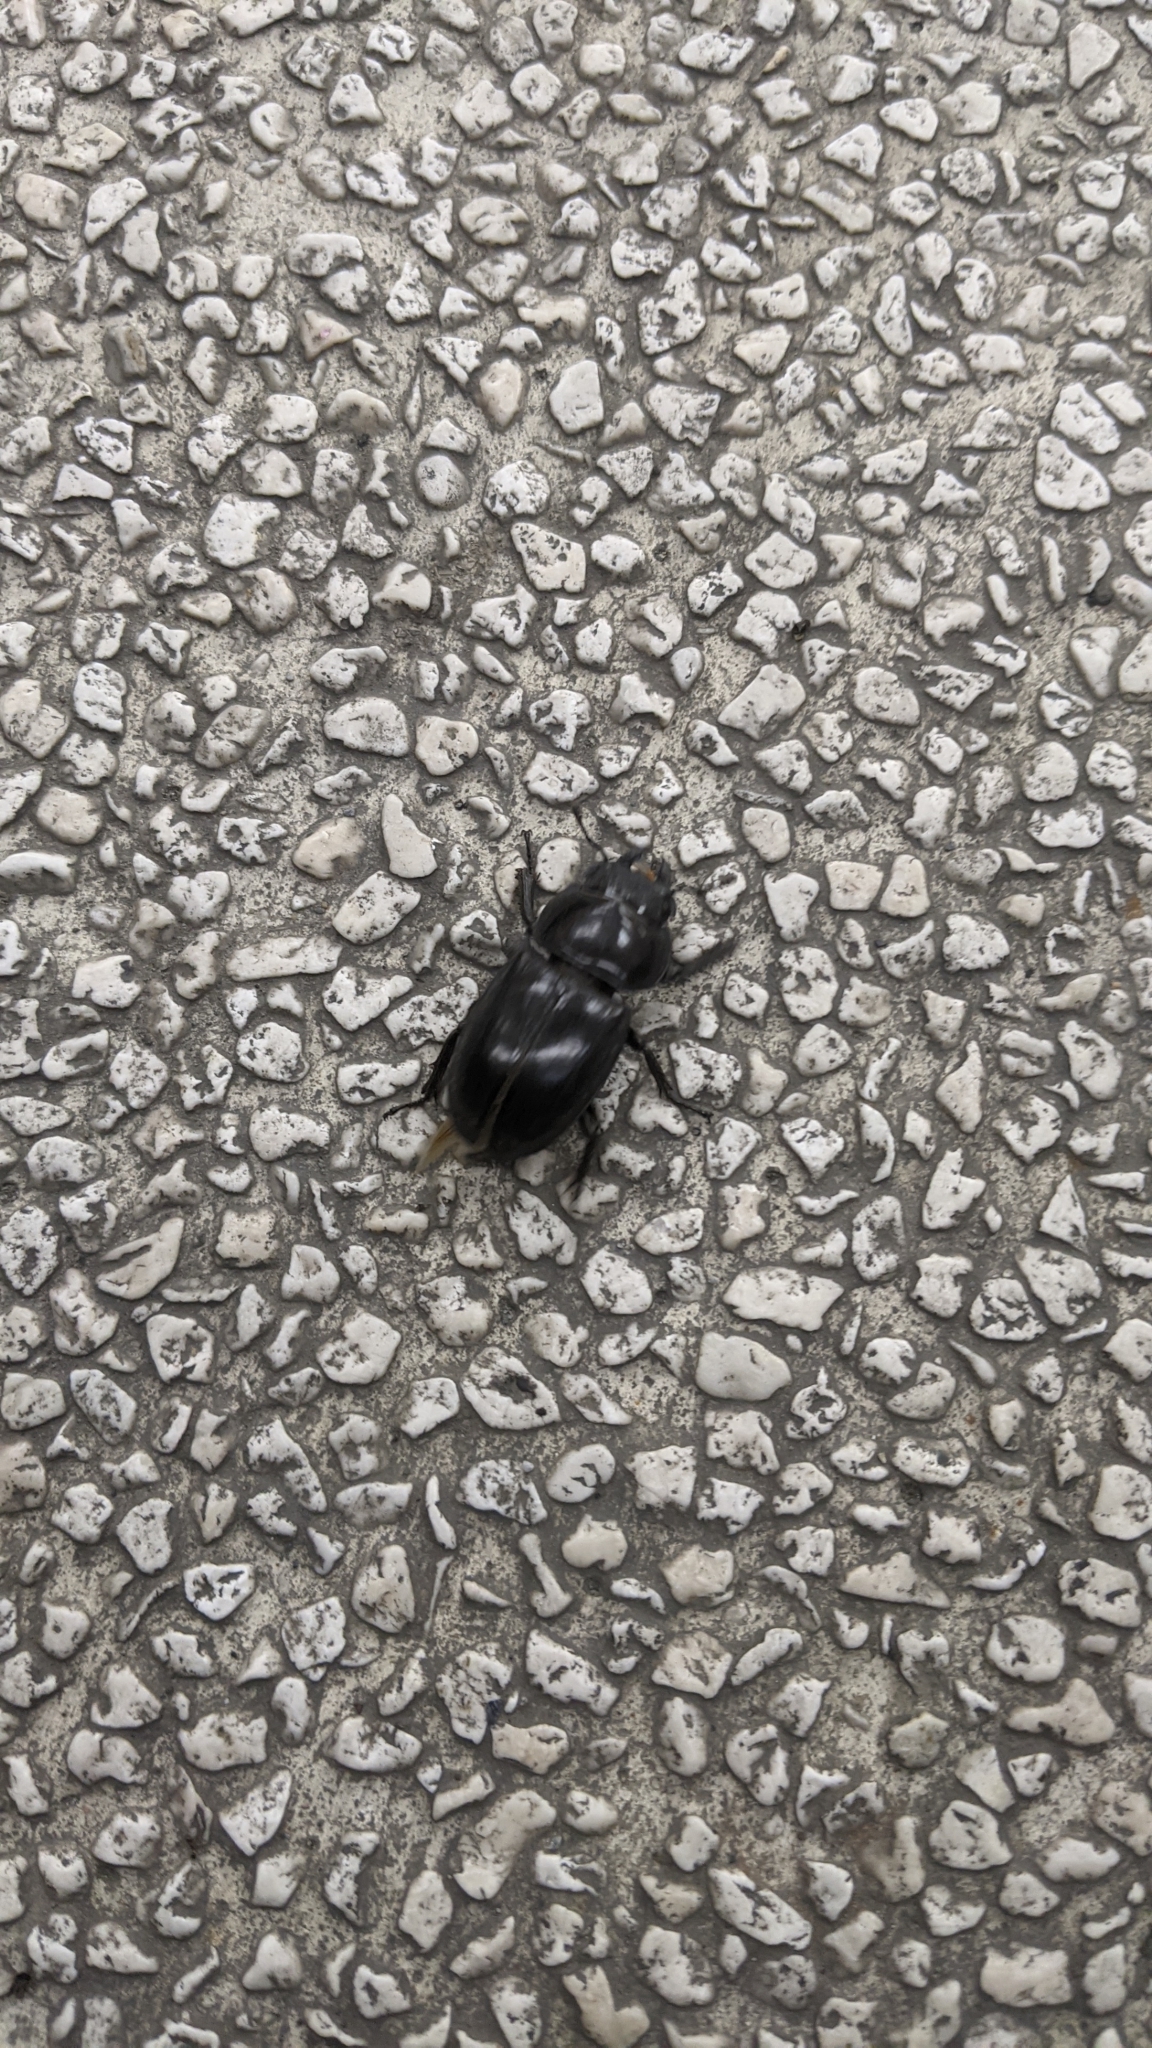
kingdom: Animalia
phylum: Arthropoda
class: Insecta
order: Coleoptera
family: Lucanidae
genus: Serrognathus
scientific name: Serrognathus titanus
